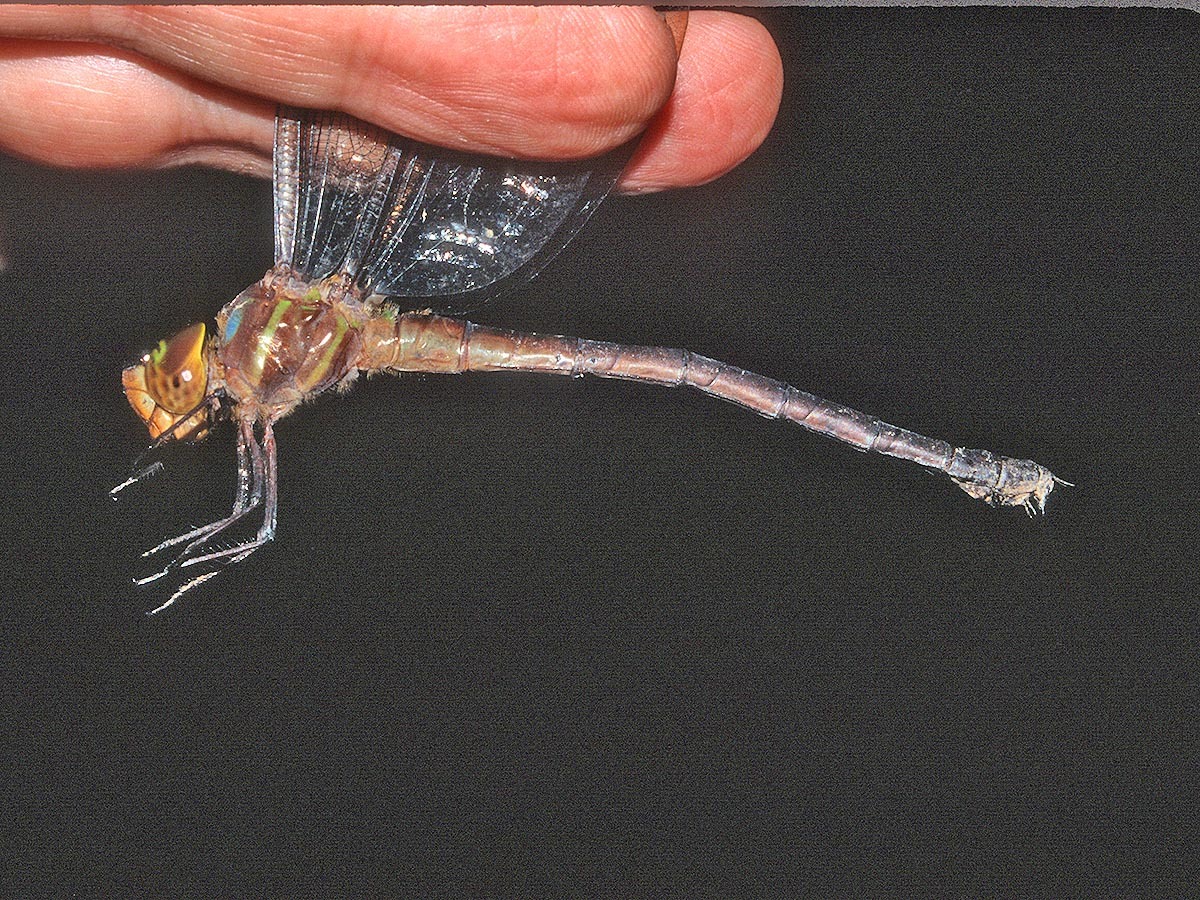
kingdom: Animalia
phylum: Arthropoda
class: Insecta
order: Odonata
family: Aeshnidae
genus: Neuraeschna
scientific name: Neuraeschna calverti
